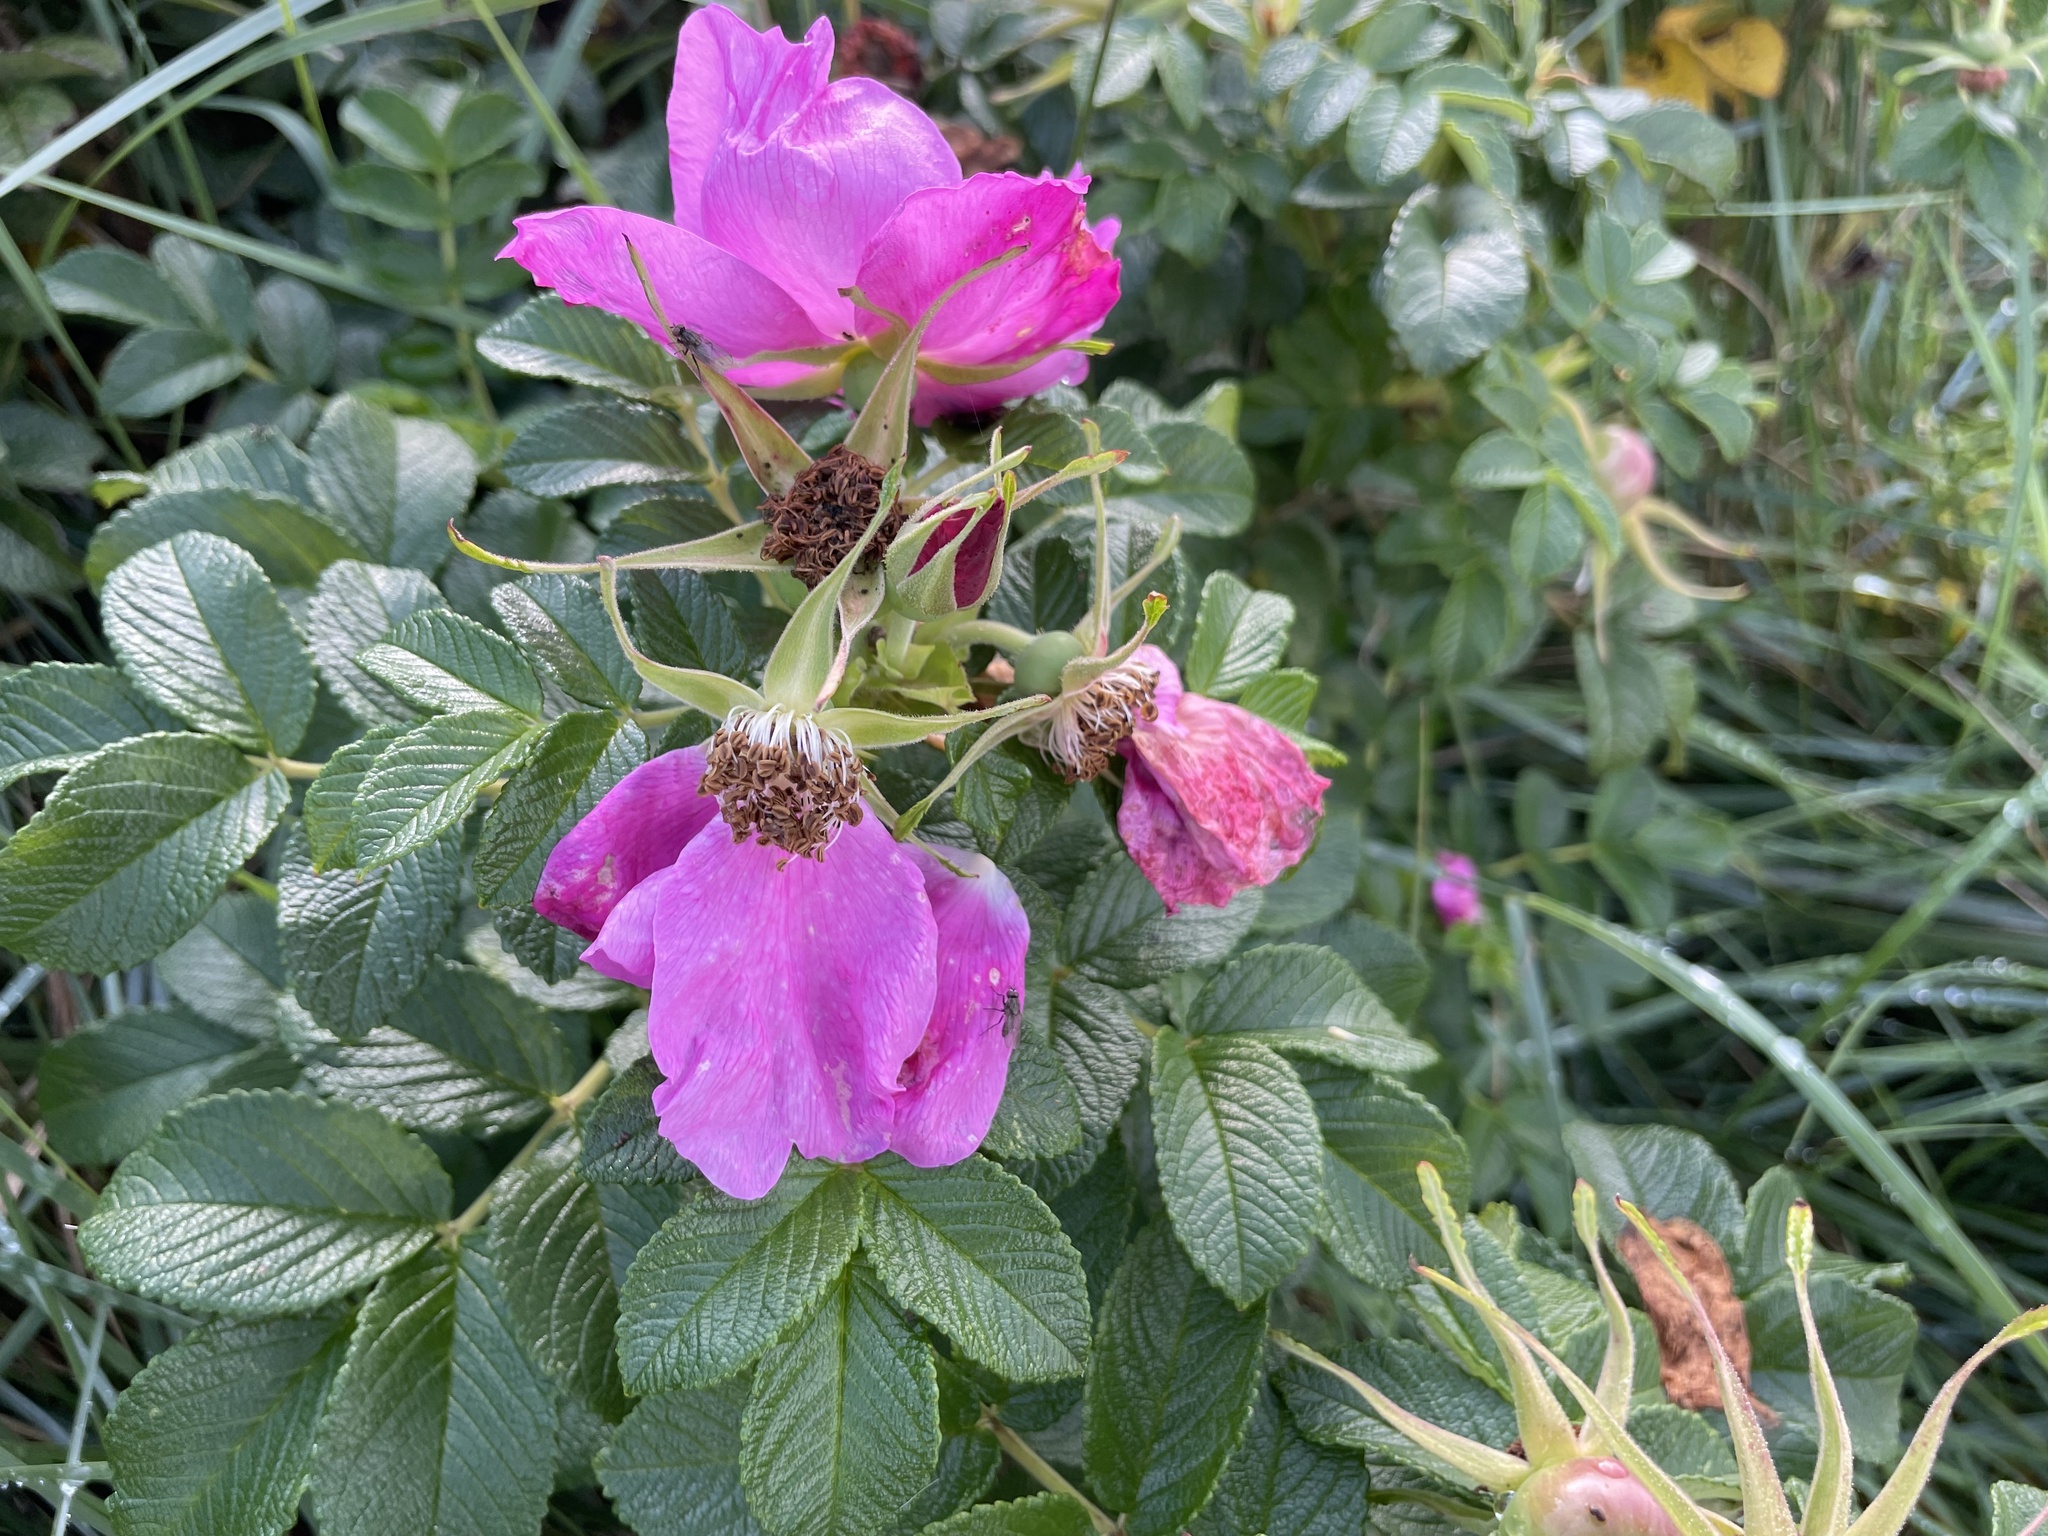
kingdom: Plantae
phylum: Tracheophyta
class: Magnoliopsida
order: Rosales
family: Rosaceae
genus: Rosa
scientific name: Rosa rugosa
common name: Japanese rose
